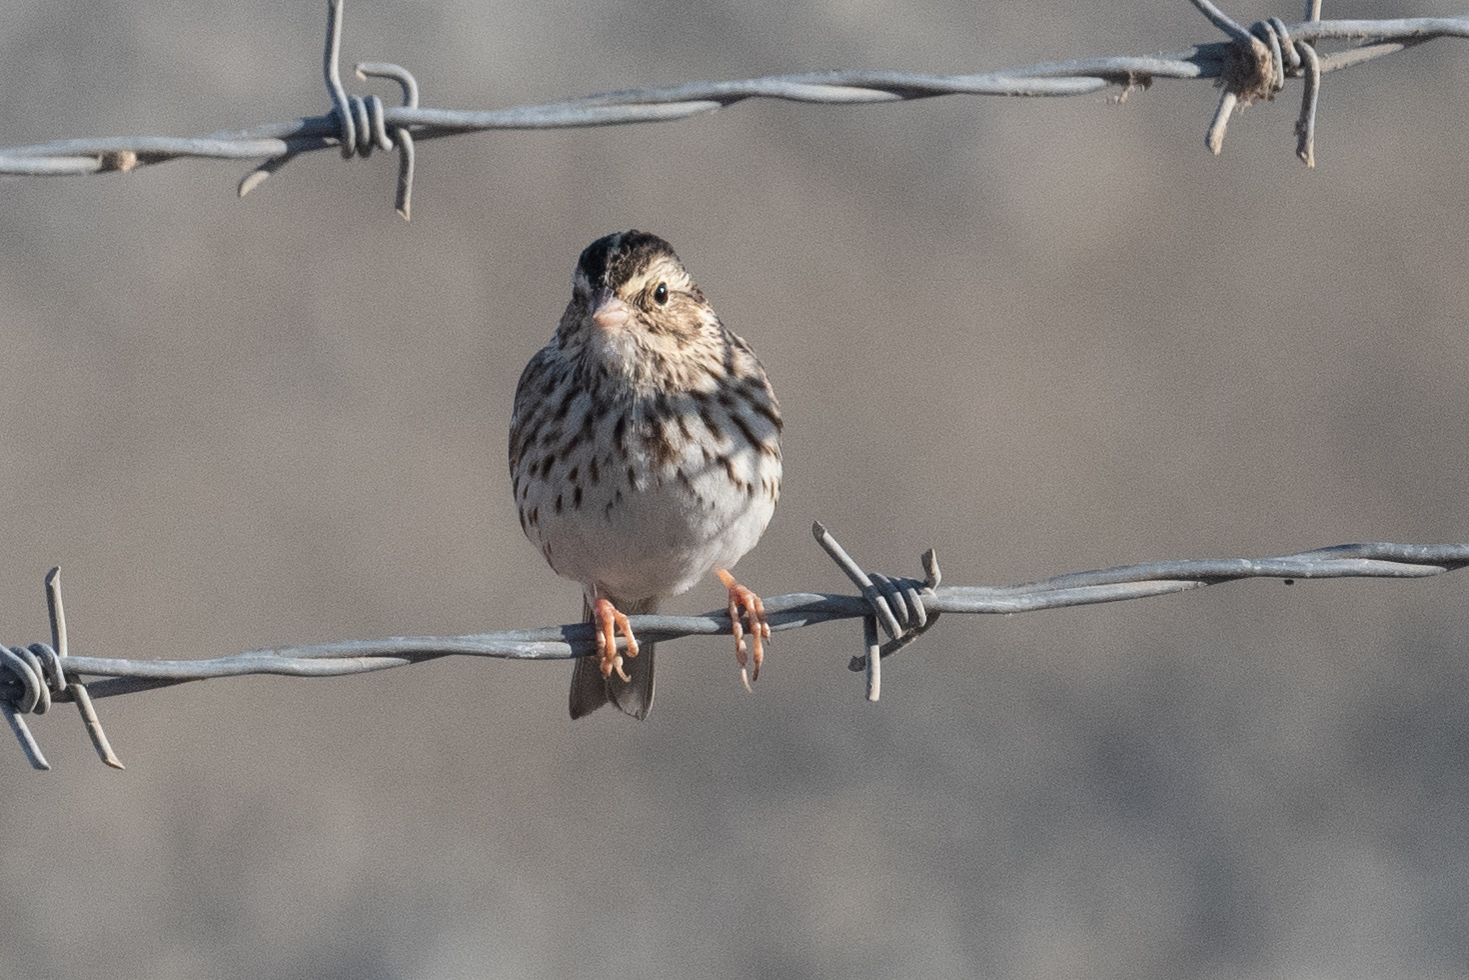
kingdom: Animalia
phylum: Chordata
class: Aves
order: Passeriformes
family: Passerellidae
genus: Passerculus
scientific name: Passerculus sandwichensis
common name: Savannah sparrow
